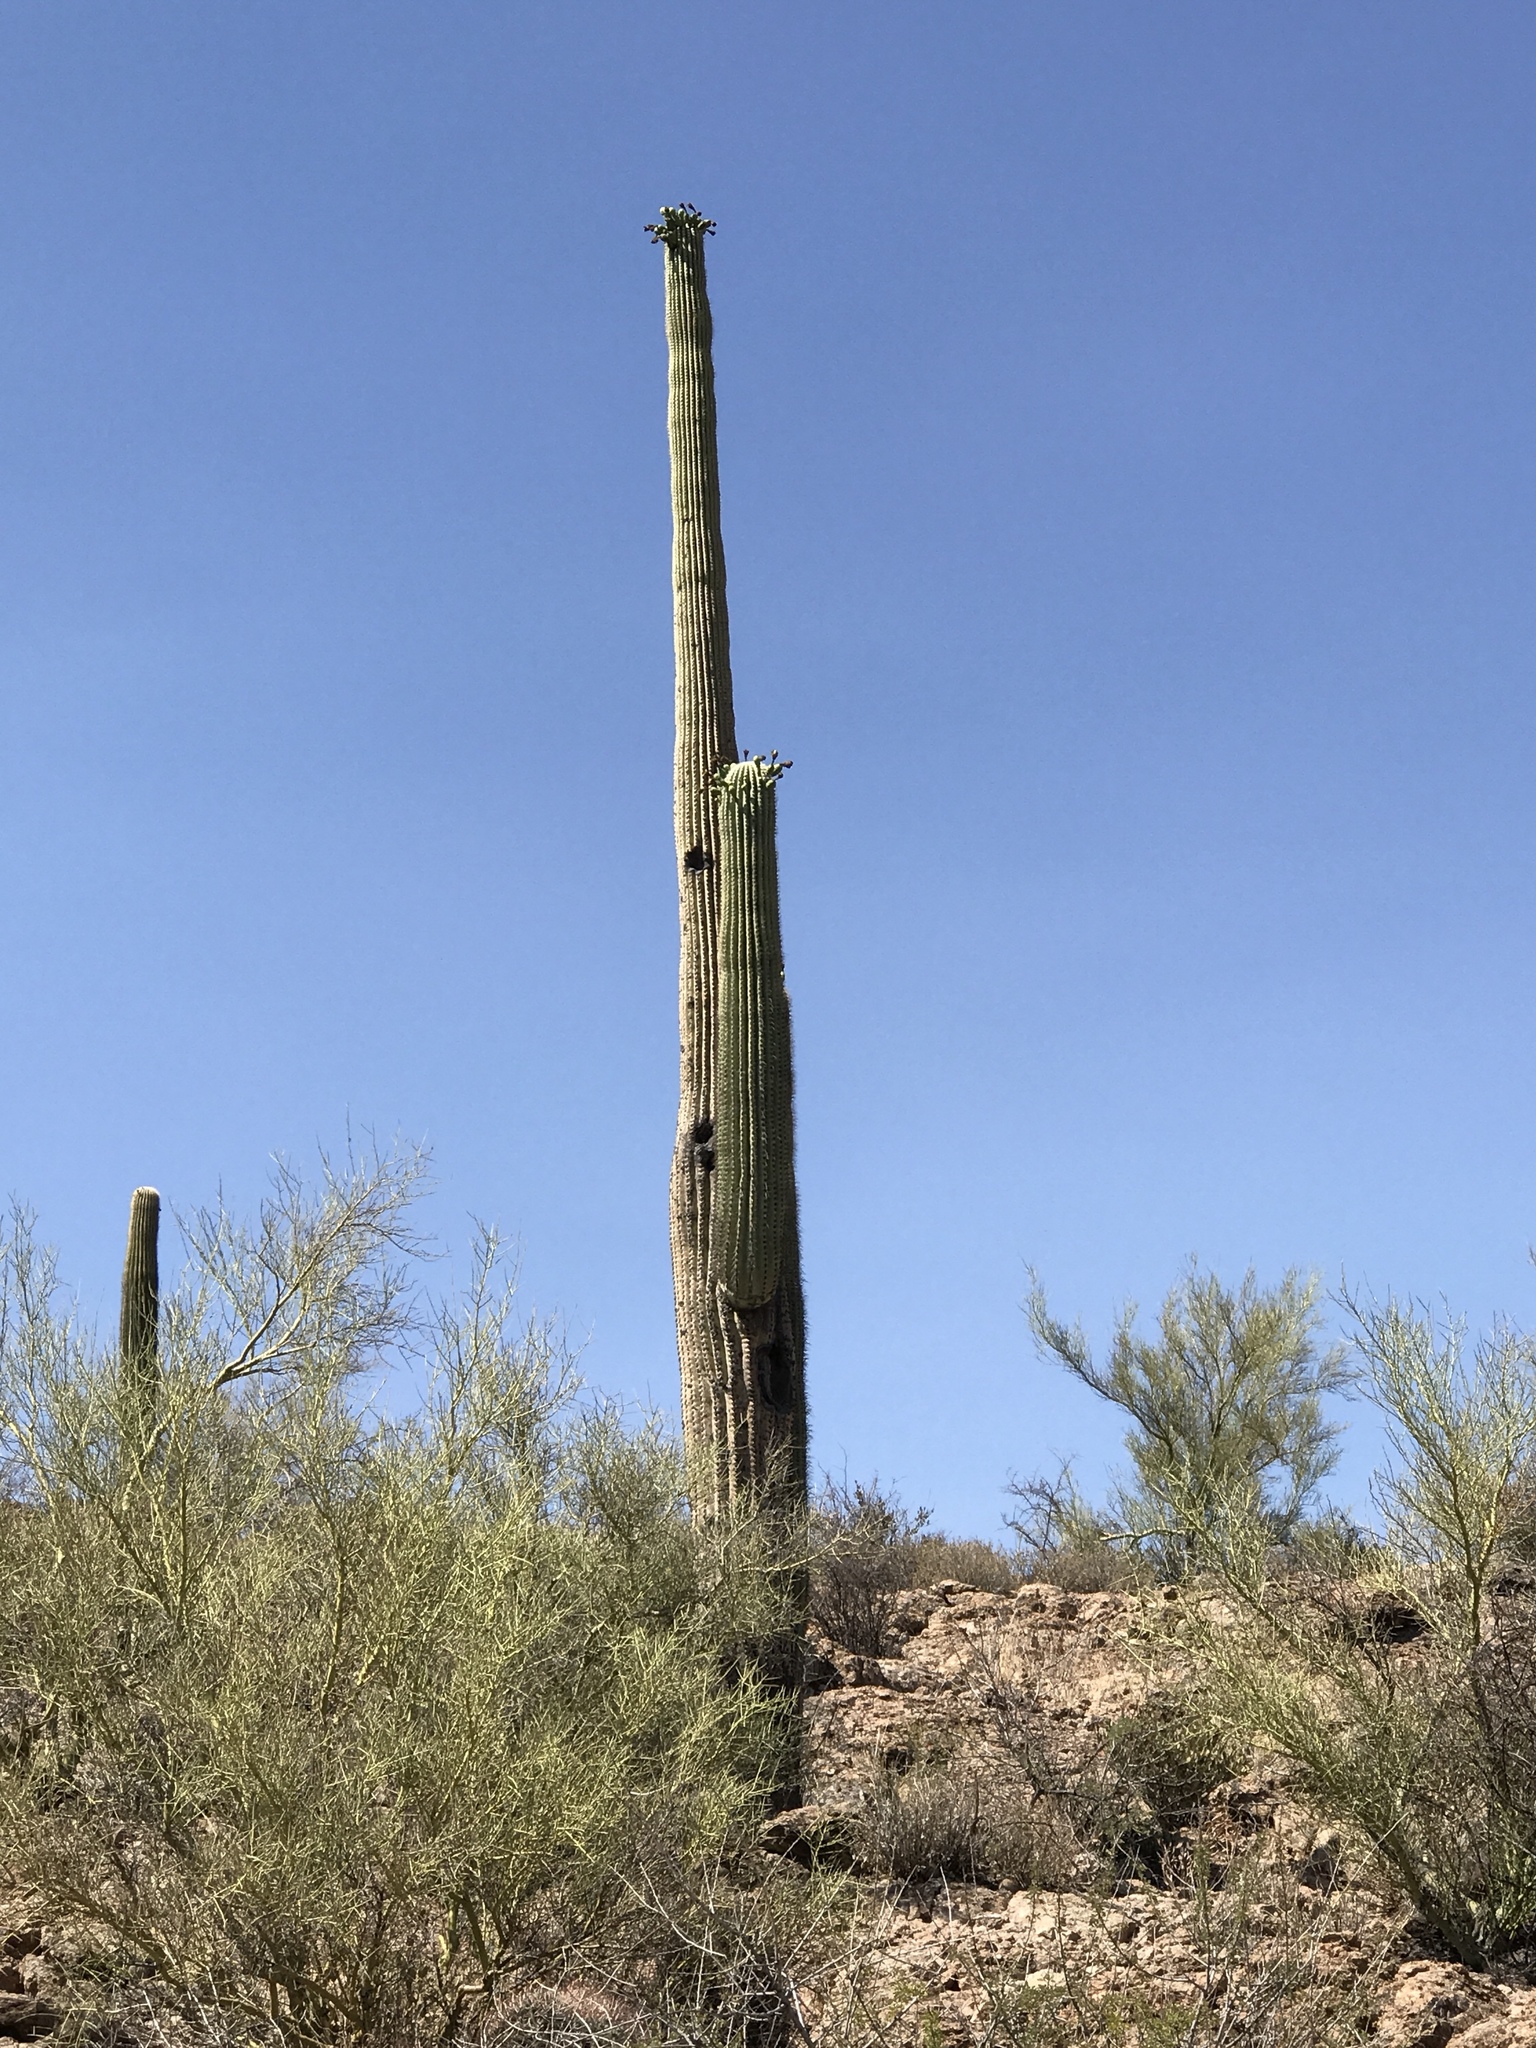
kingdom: Plantae
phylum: Tracheophyta
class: Magnoliopsida
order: Caryophyllales
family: Cactaceae
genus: Carnegiea
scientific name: Carnegiea gigantea
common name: Saguaro
